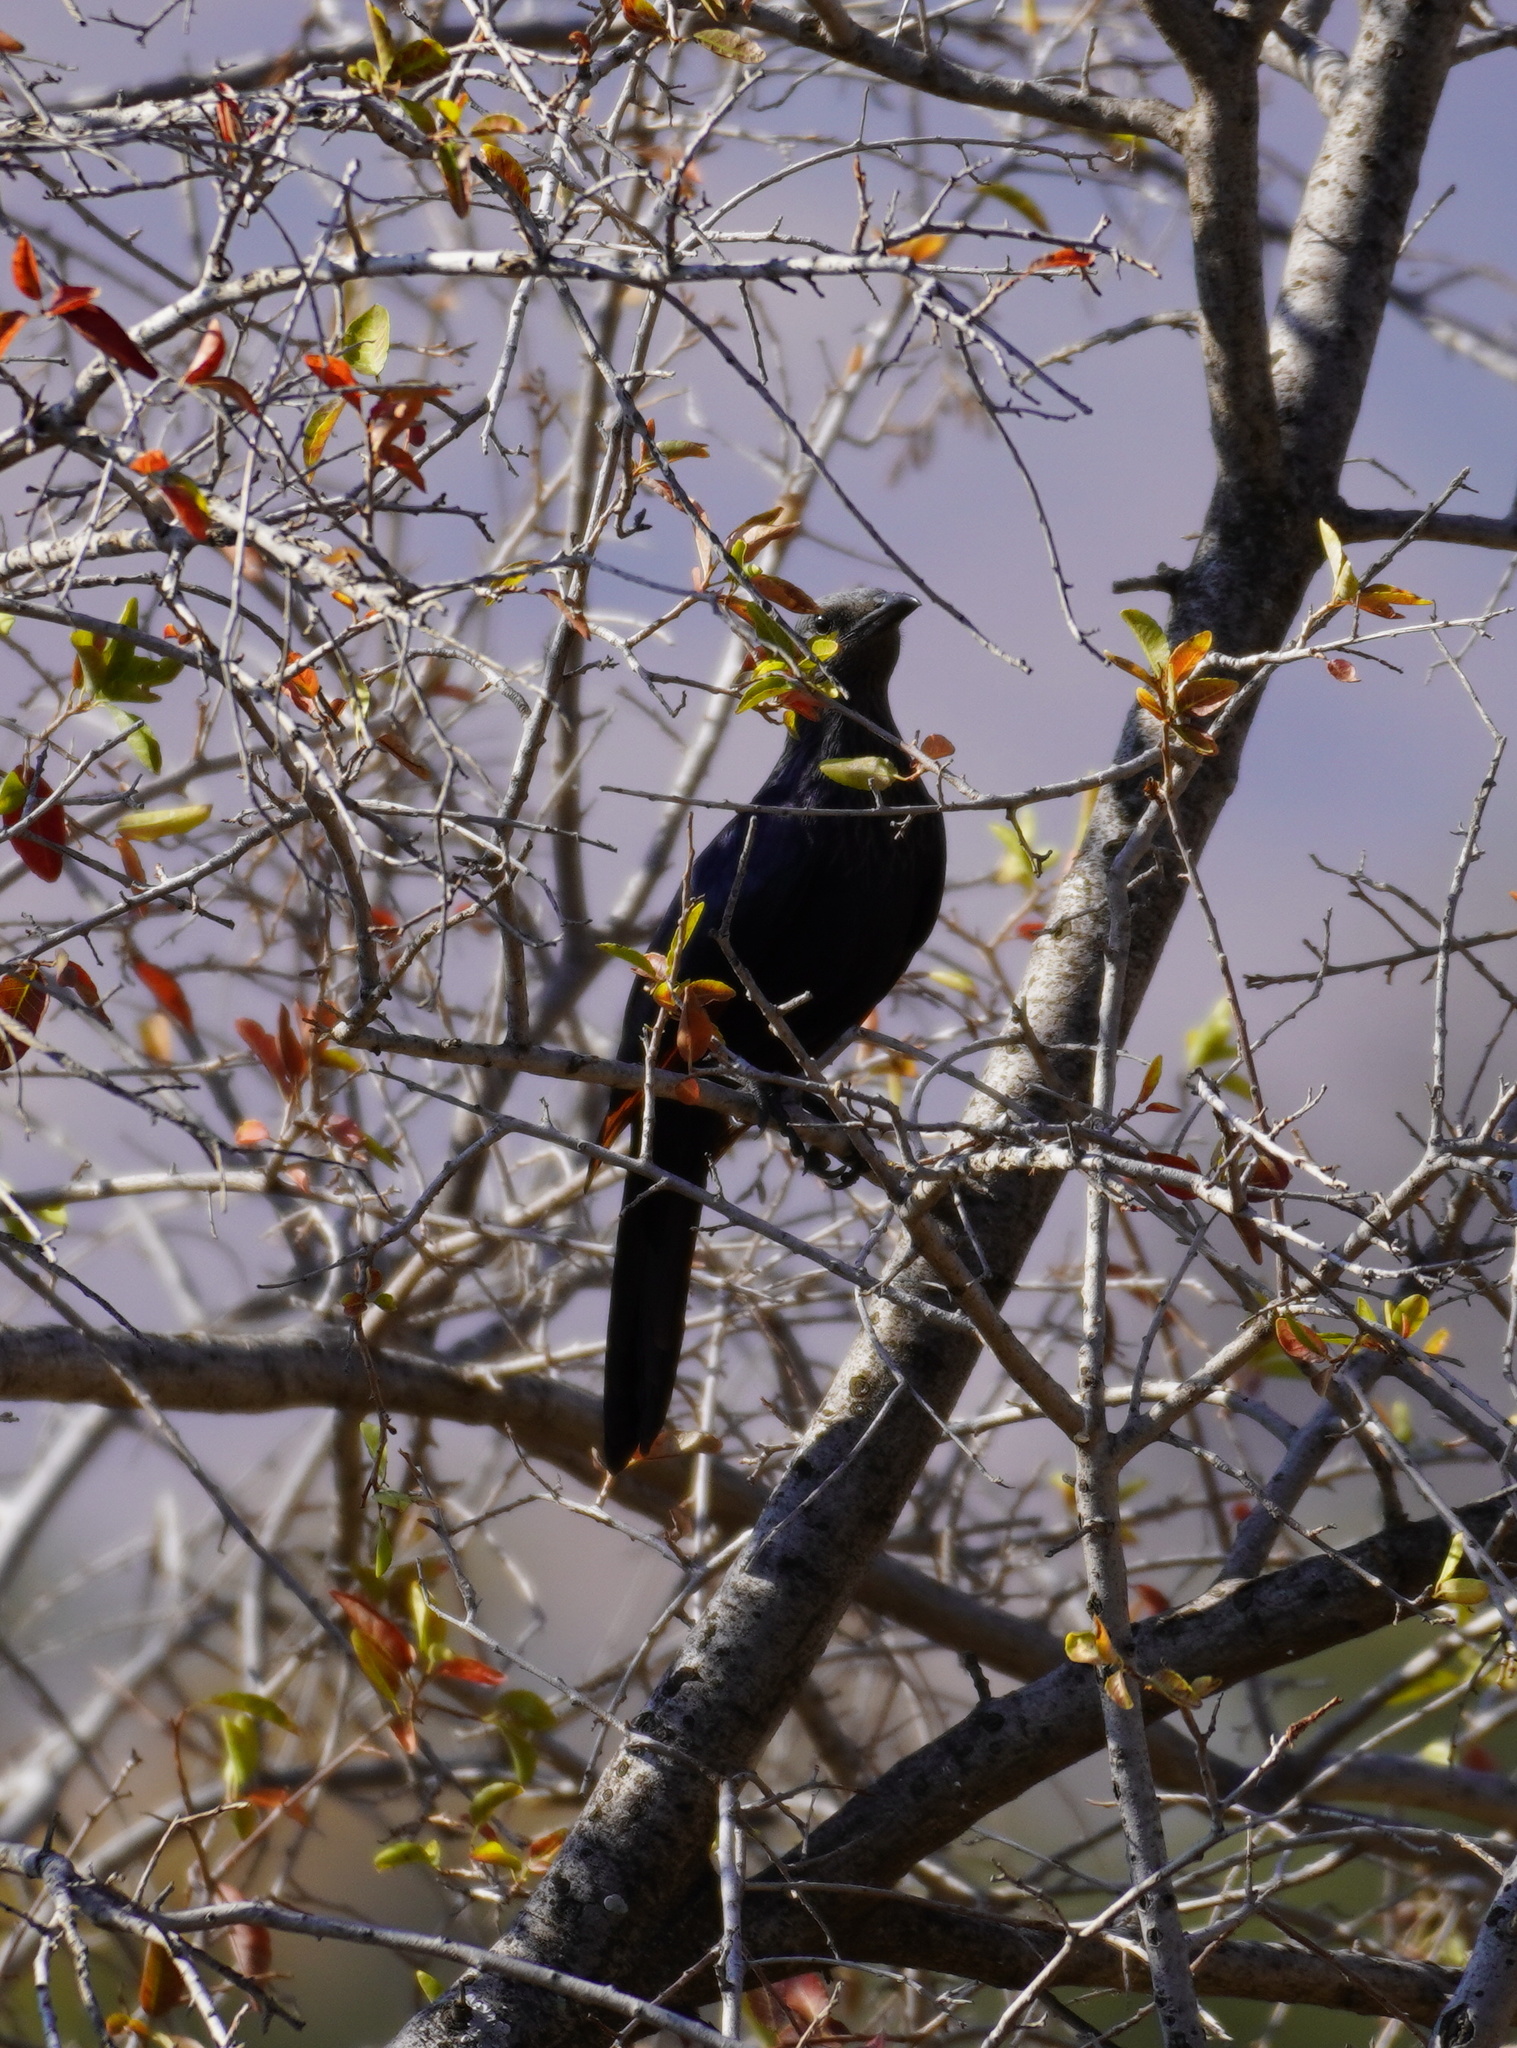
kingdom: Animalia
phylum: Chordata
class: Aves
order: Passeriformes
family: Sturnidae
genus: Onychognathus
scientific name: Onychognathus morio
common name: Red-winged starling
